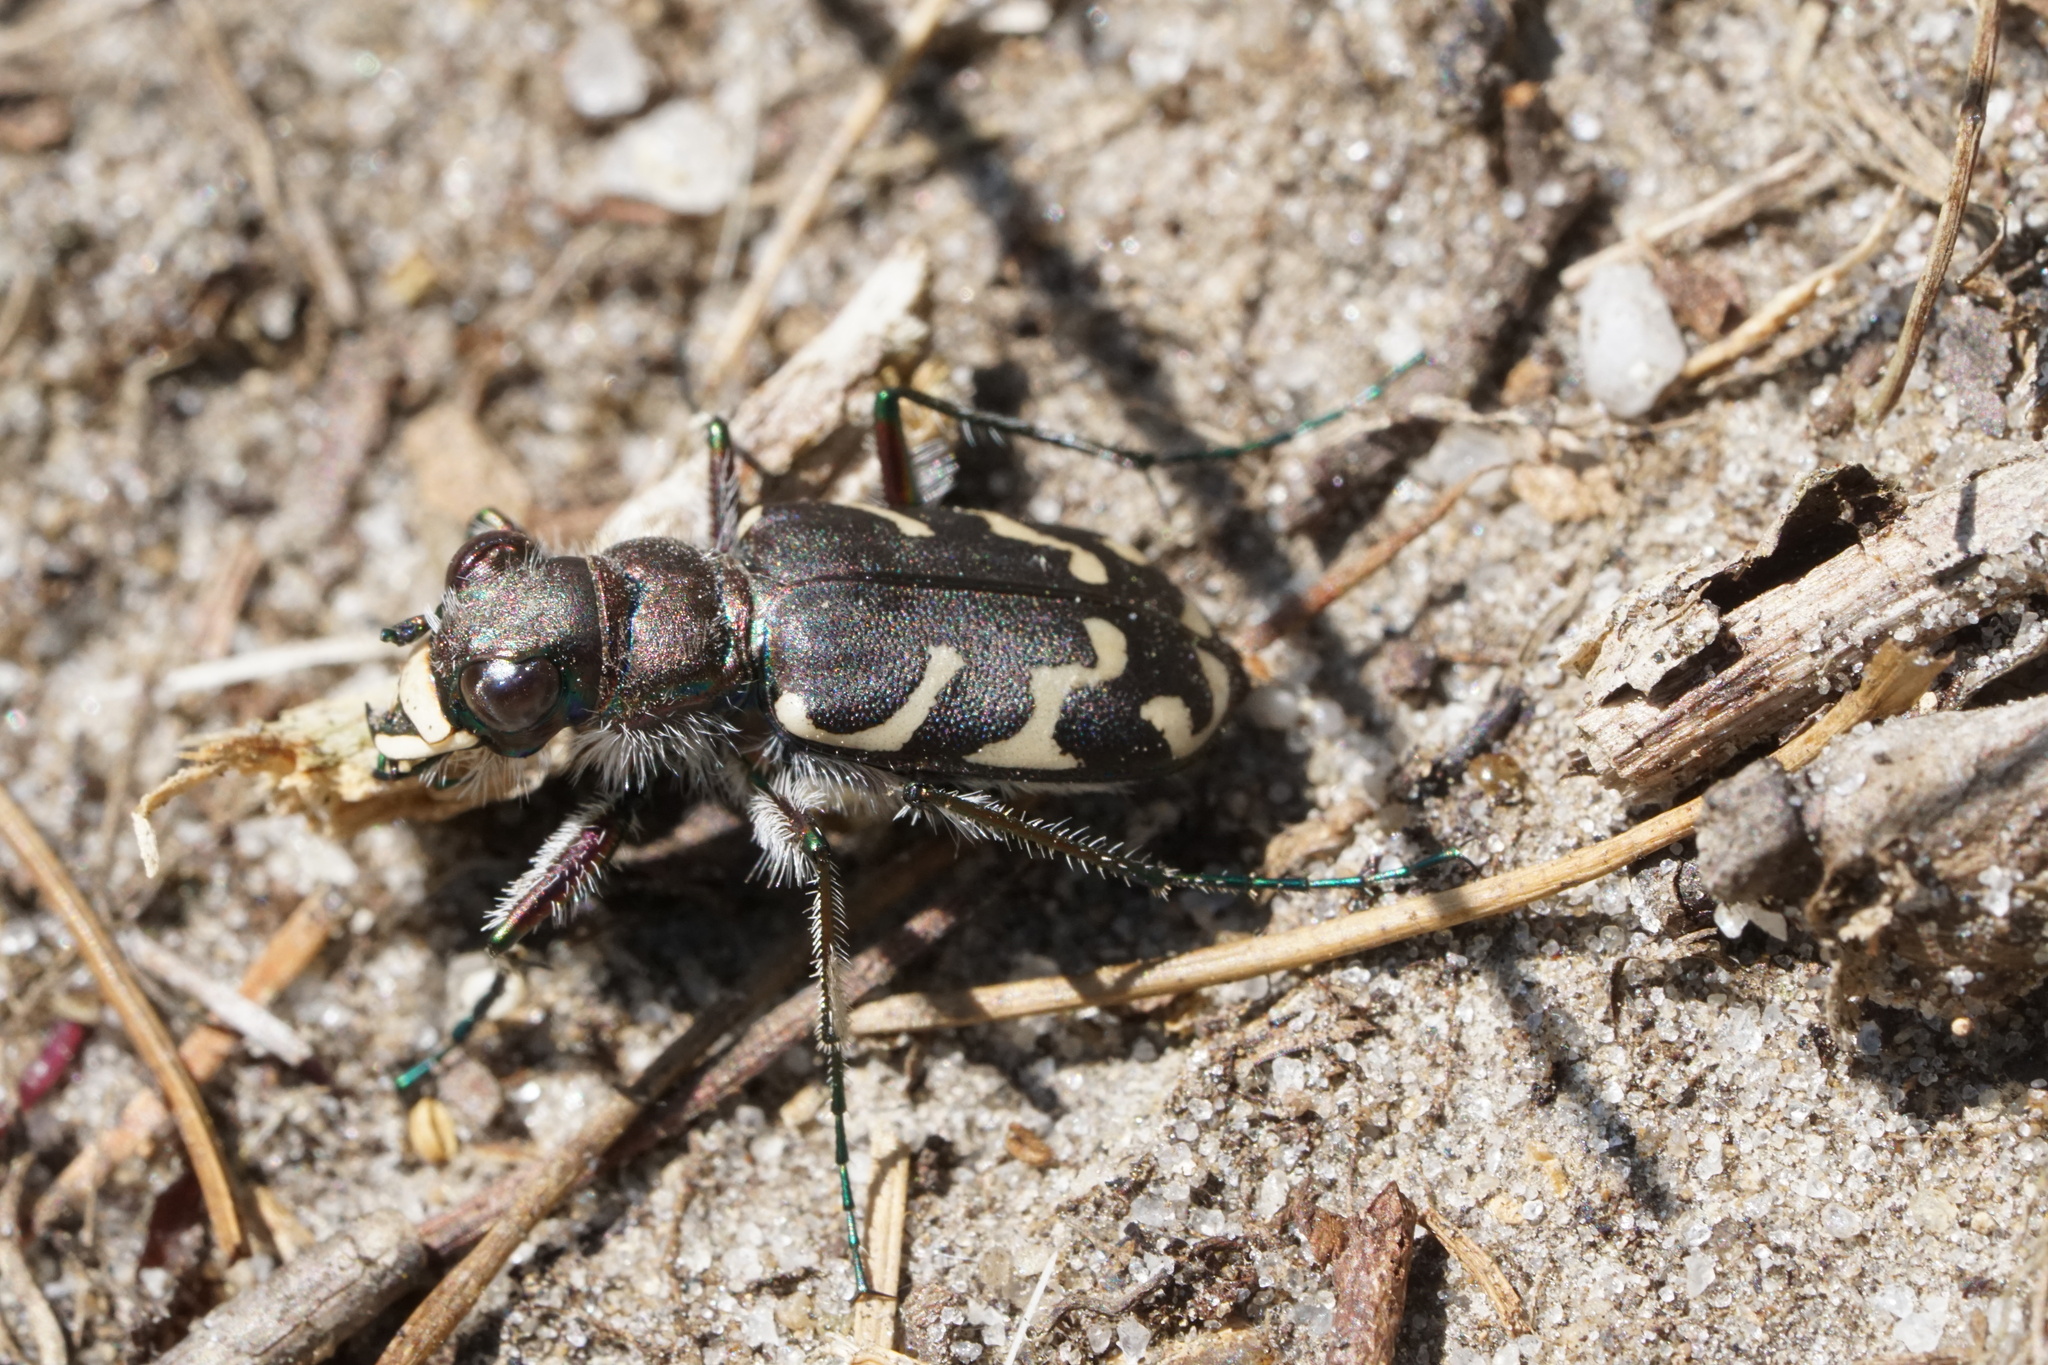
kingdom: Animalia
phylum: Arthropoda
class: Insecta
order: Coleoptera
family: Carabidae
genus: Cicindela
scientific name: Cicindela tranquebarica
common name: Oblique-lined tiger beetle
